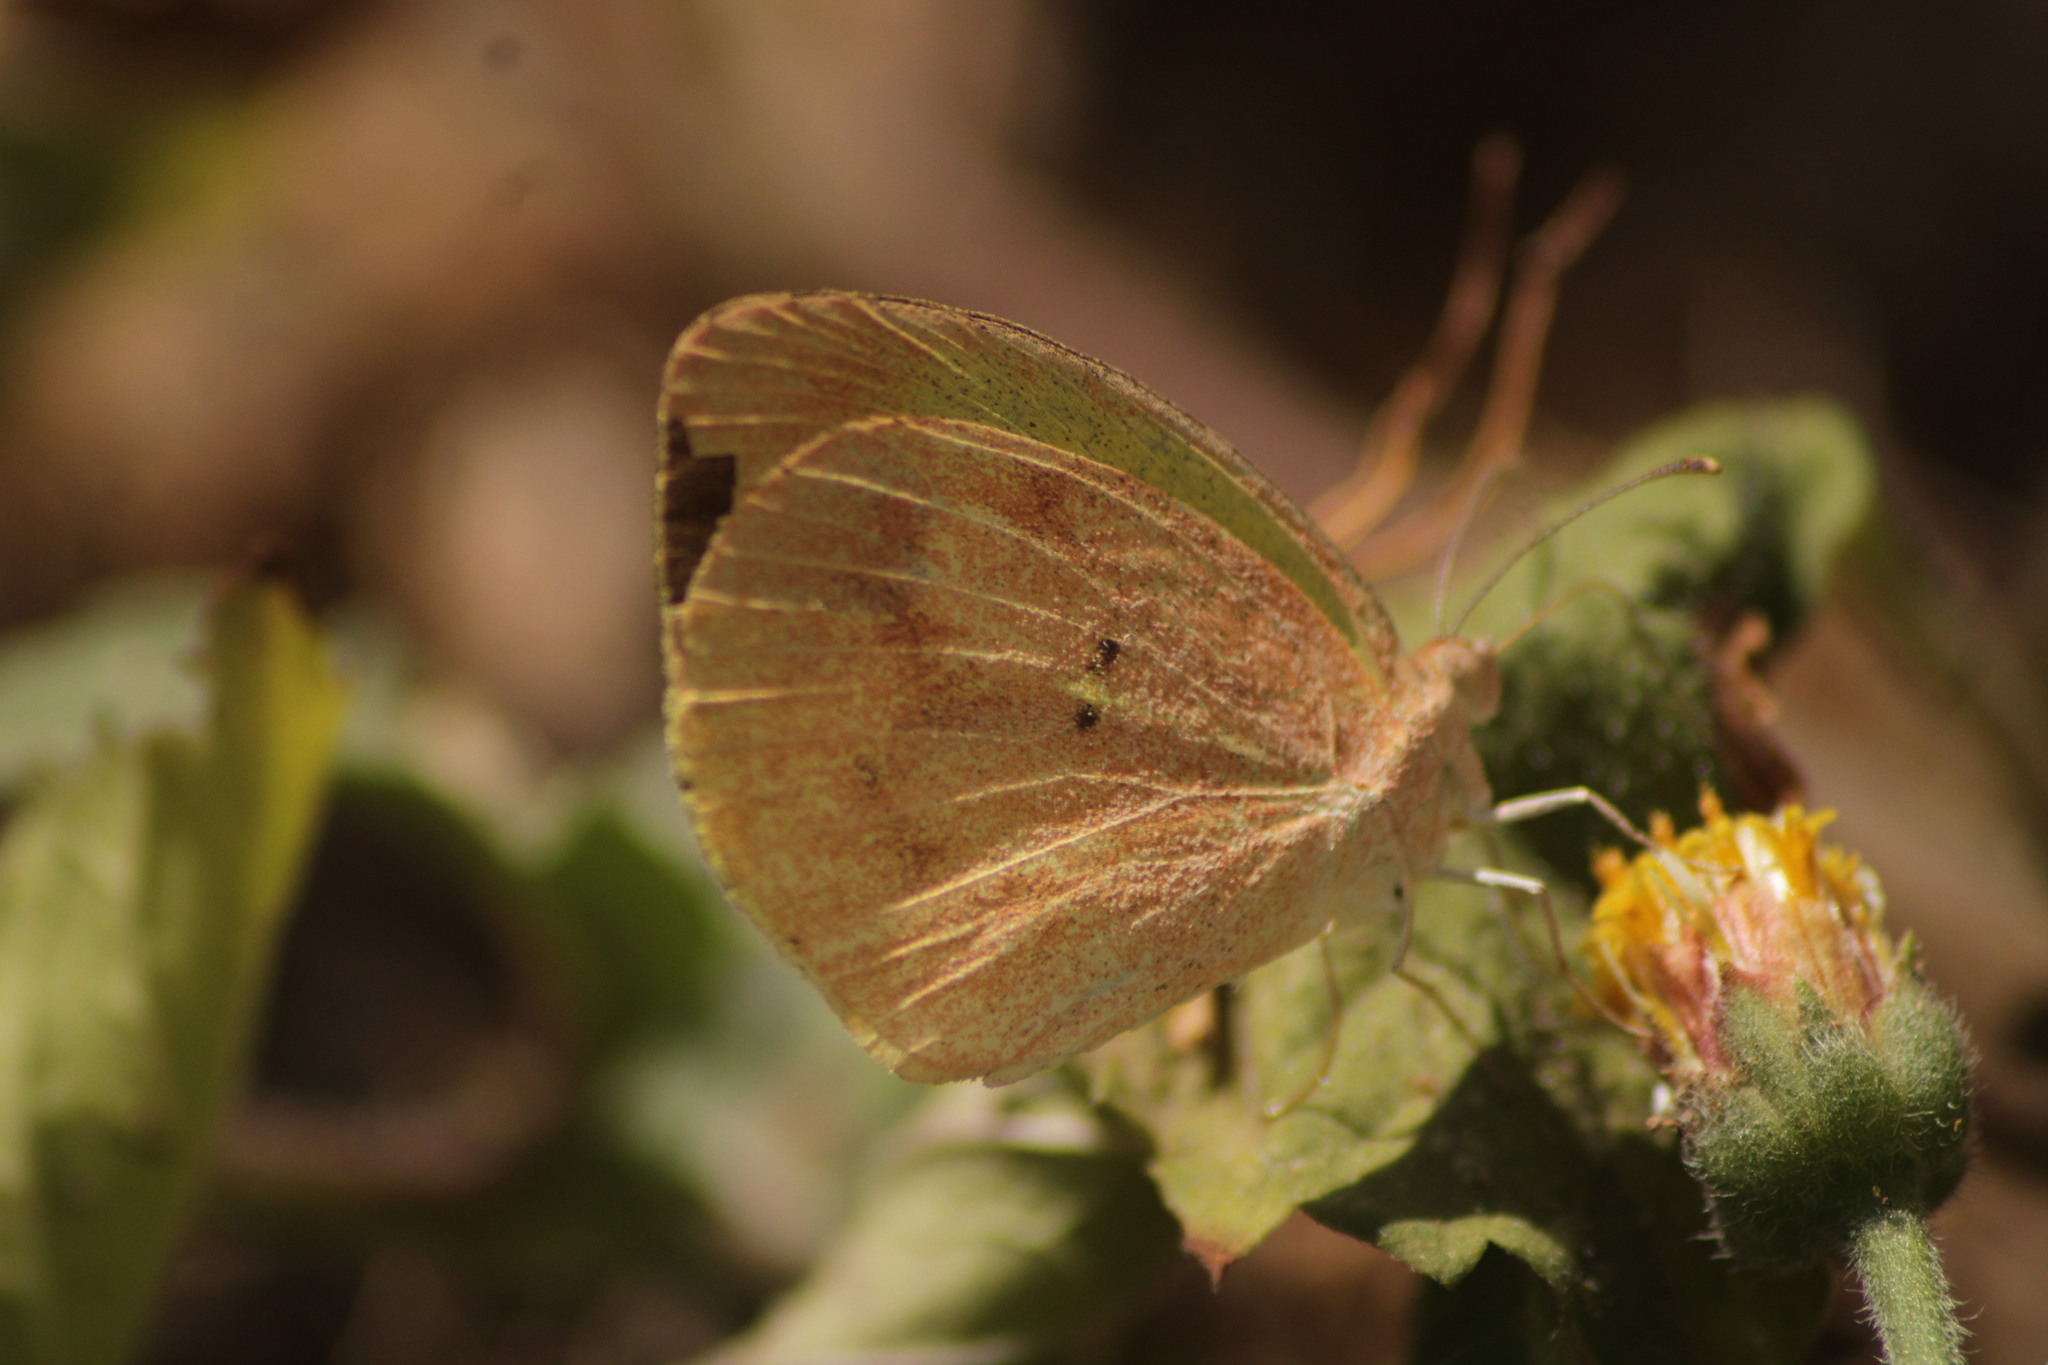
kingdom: Animalia
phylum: Arthropoda
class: Insecta
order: Lepidoptera
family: Pieridae
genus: Eurema
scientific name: Eurema daira
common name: Barred sulphur
